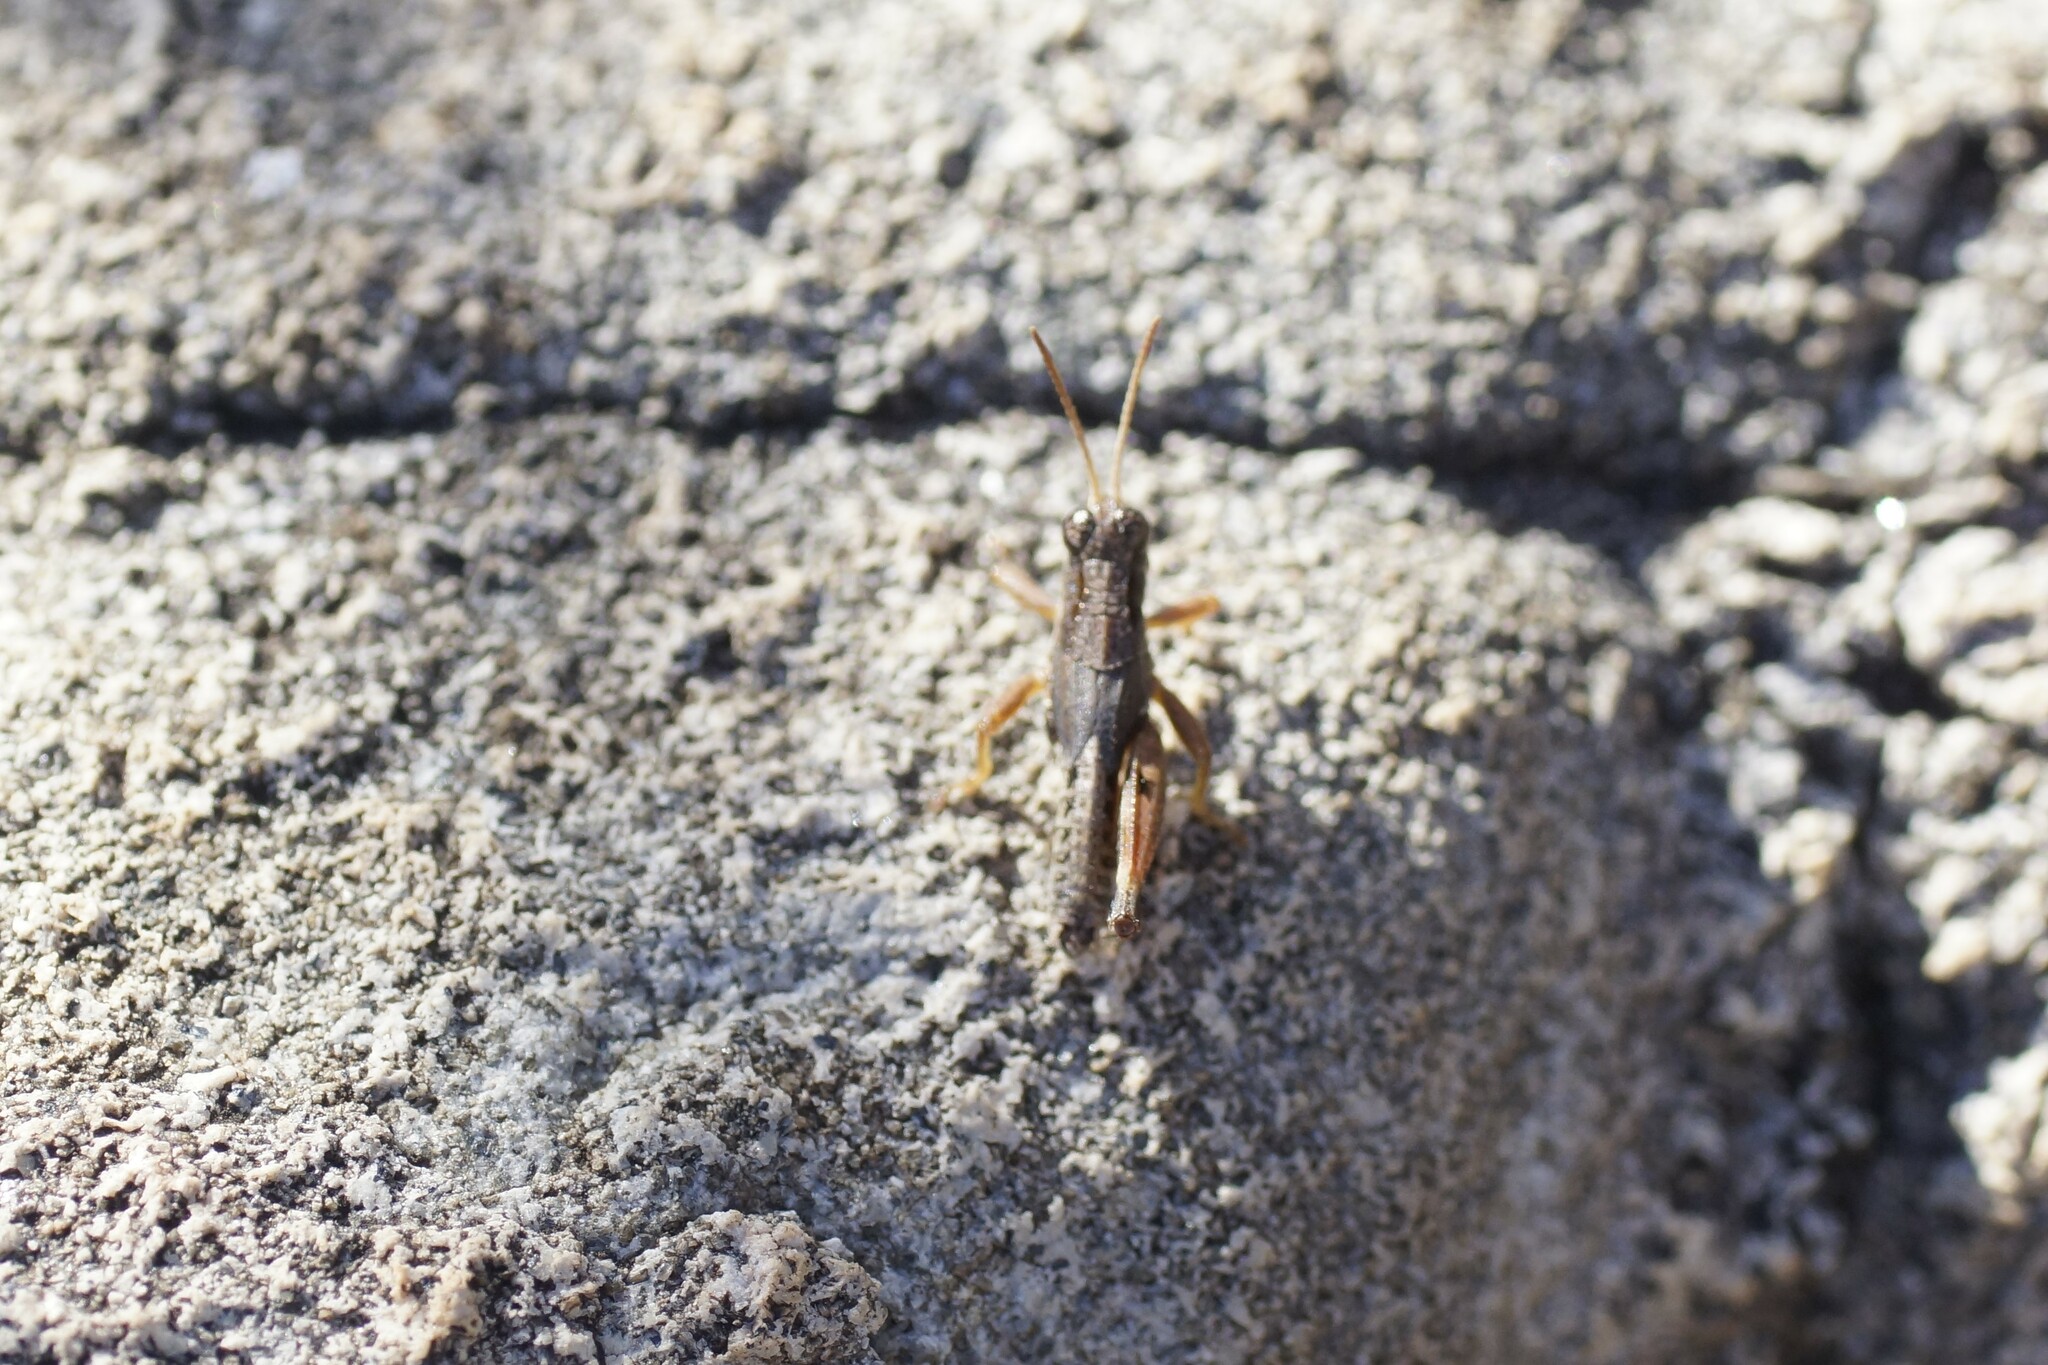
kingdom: Animalia
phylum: Arthropoda
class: Insecta
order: Orthoptera
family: Acrididae
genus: Phaulacridium
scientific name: Phaulacridium vittatum
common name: Wingless grasshopper
